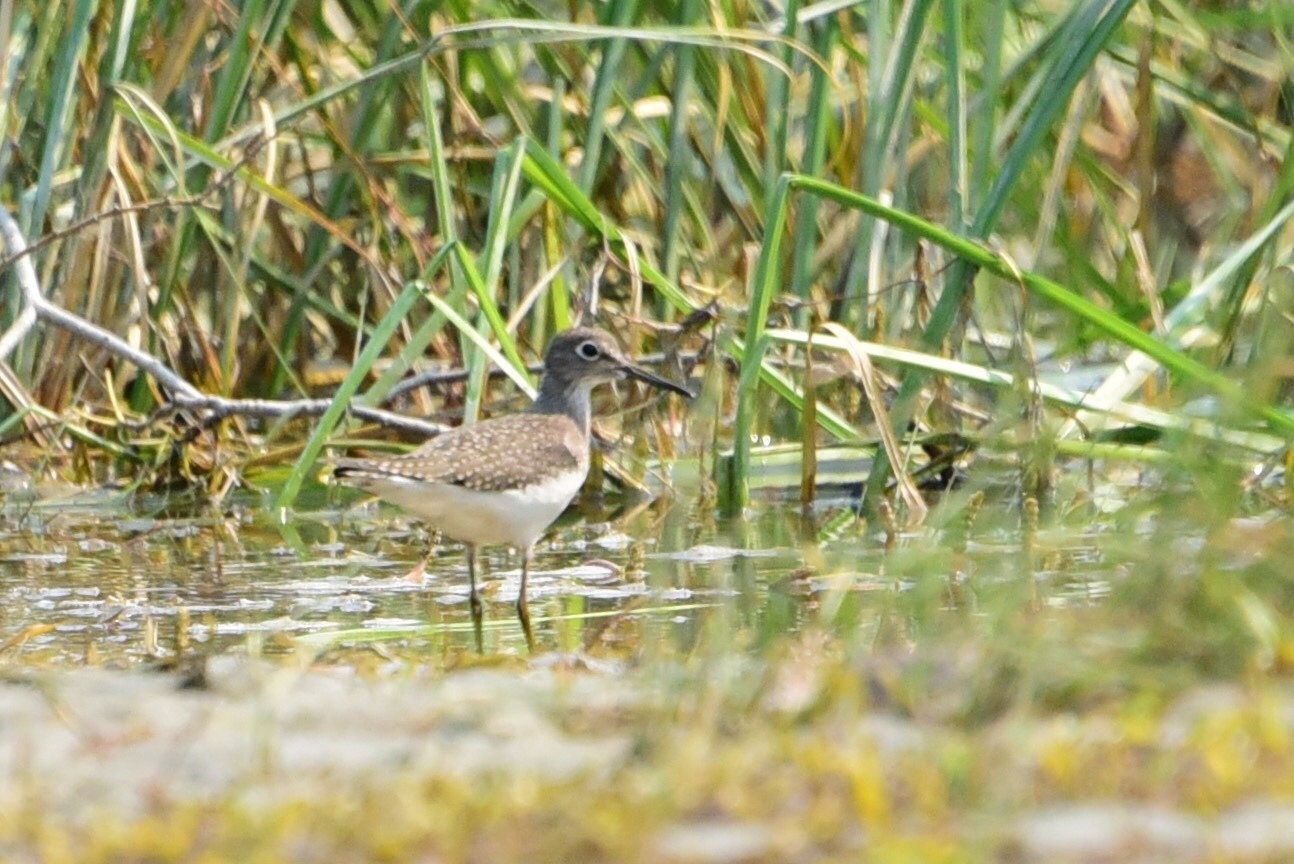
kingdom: Animalia
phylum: Chordata
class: Aves
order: Charadriiformes
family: Scolopacidae
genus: Tringa
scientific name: Tringa solitaria
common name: Solitary sandpiper
